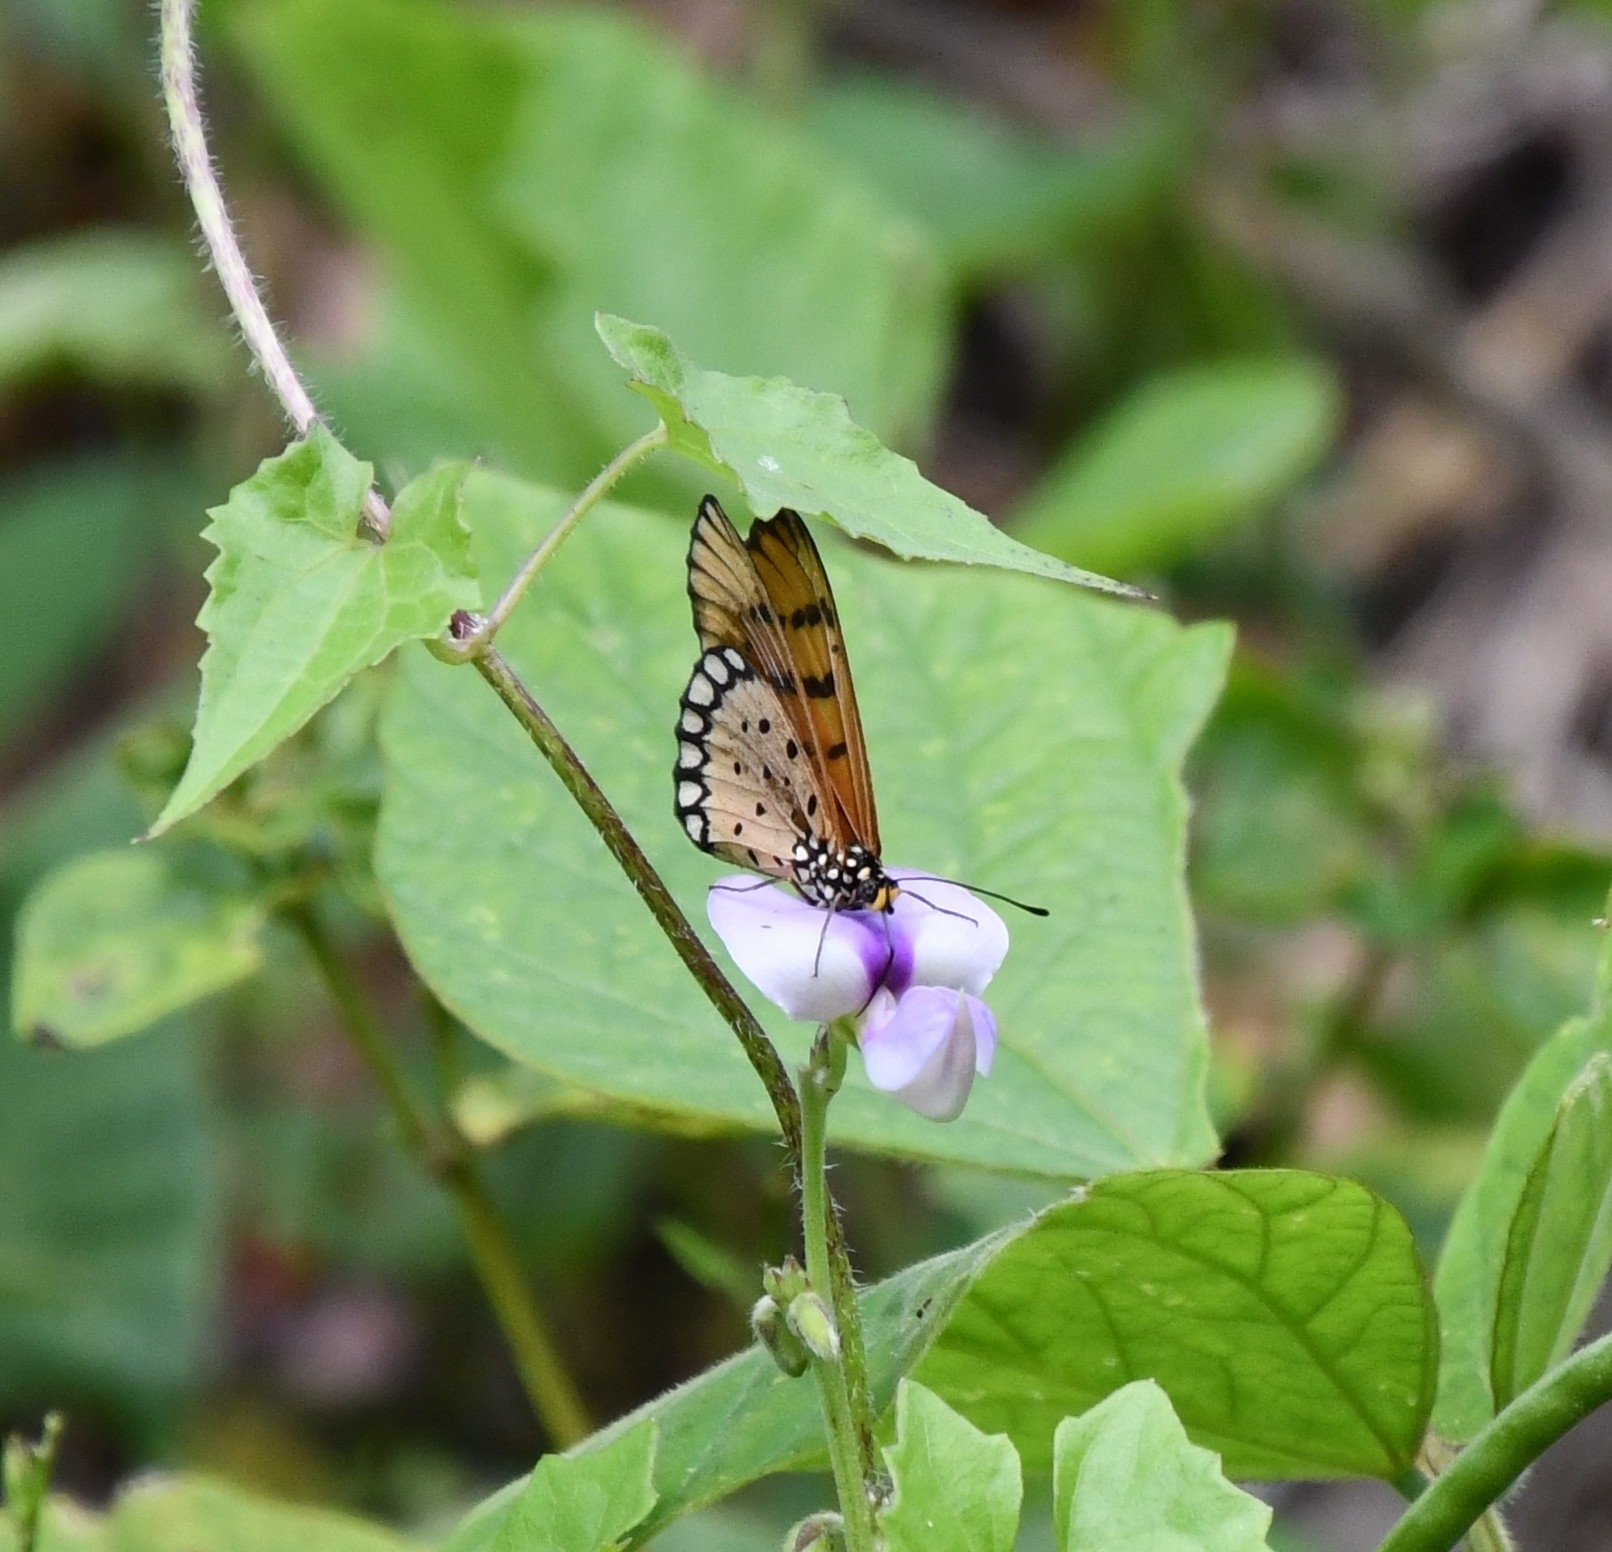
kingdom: Animalia
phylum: Arthropoda
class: Insecta
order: Lepidoptera
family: Nymphalidae
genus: Acraea
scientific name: Acraea terpsicore
